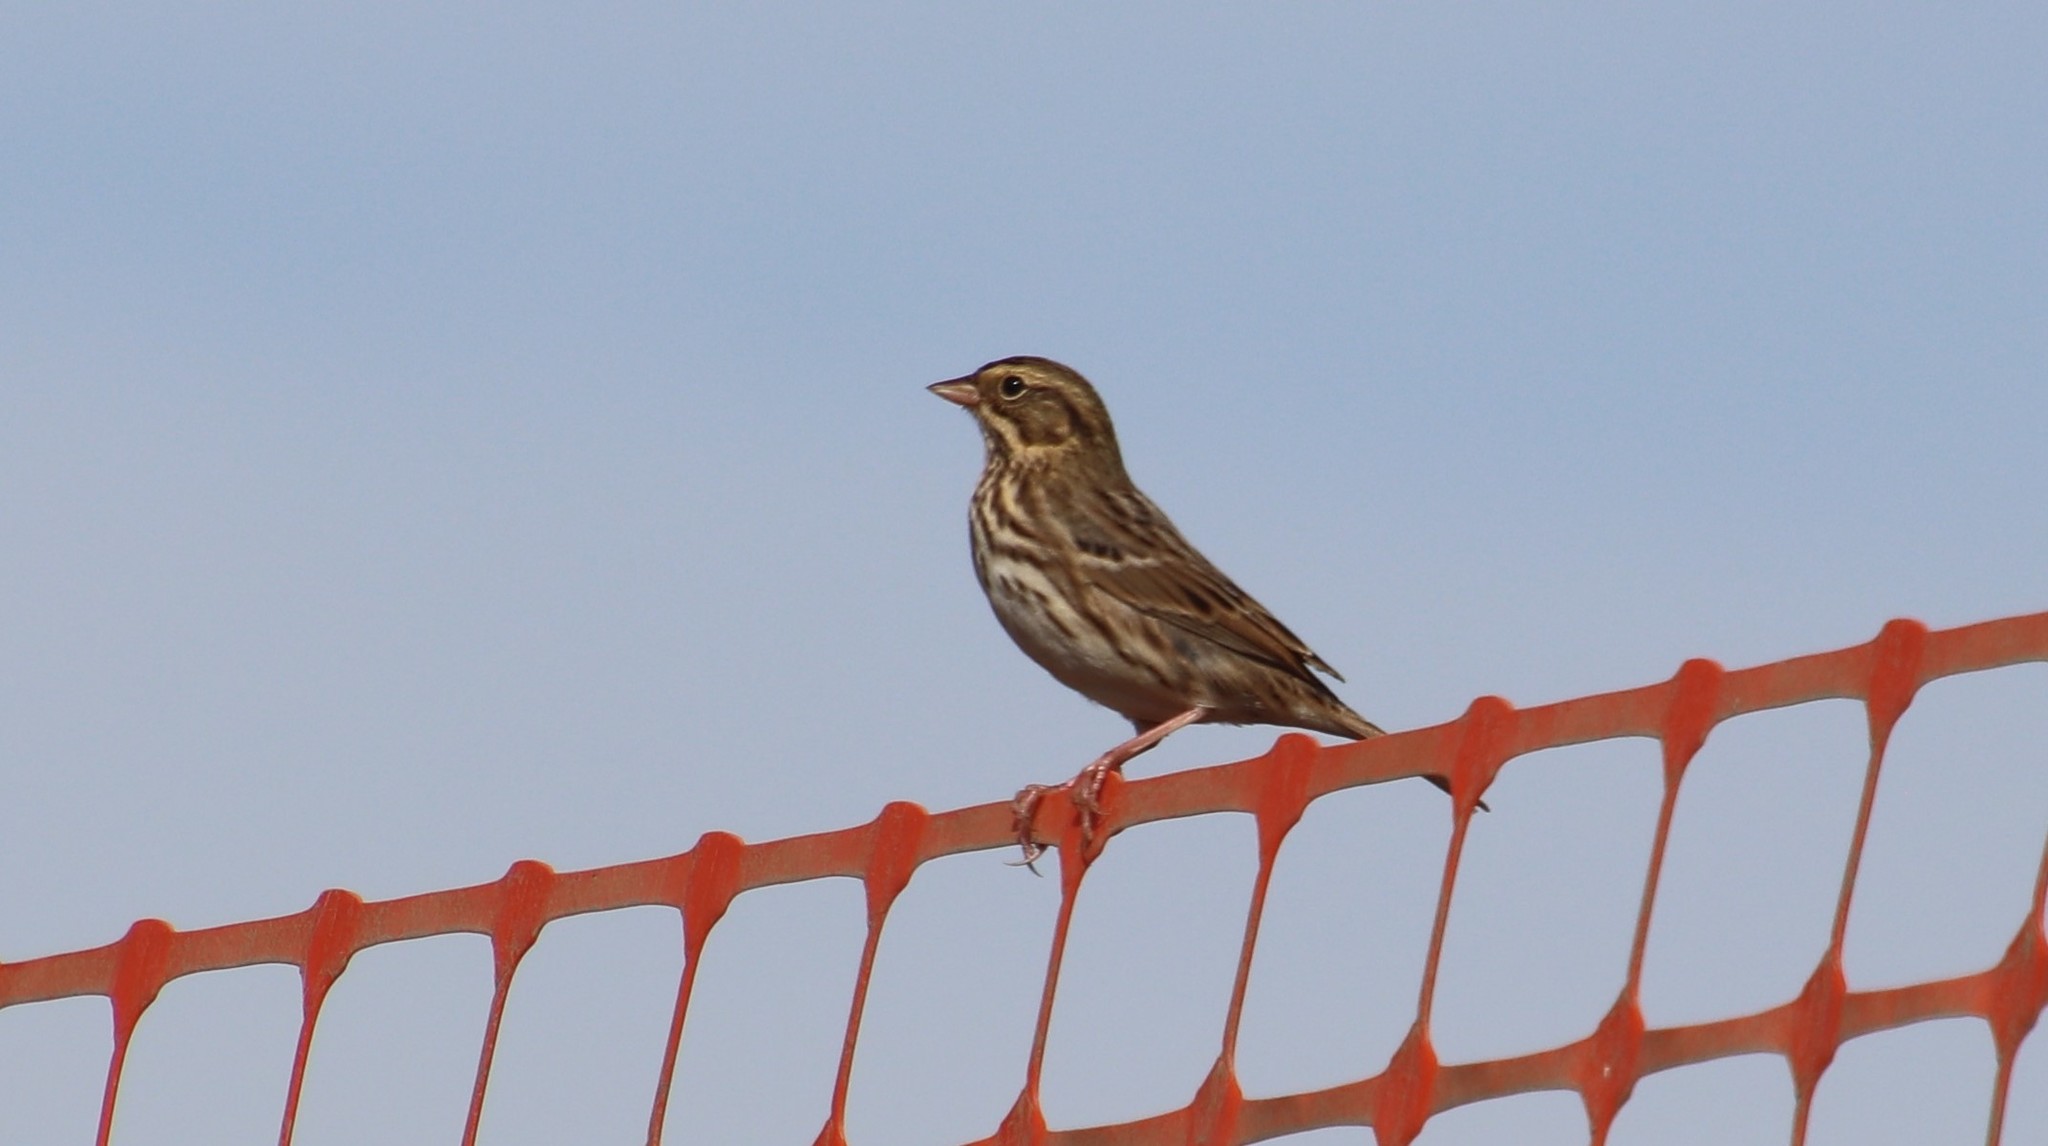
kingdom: Animalia
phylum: Chordata
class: Aves
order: Passeriformes
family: Passerellidae
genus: Passerculus
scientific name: Passerculus sandwichensis
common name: Savannah sparrow
